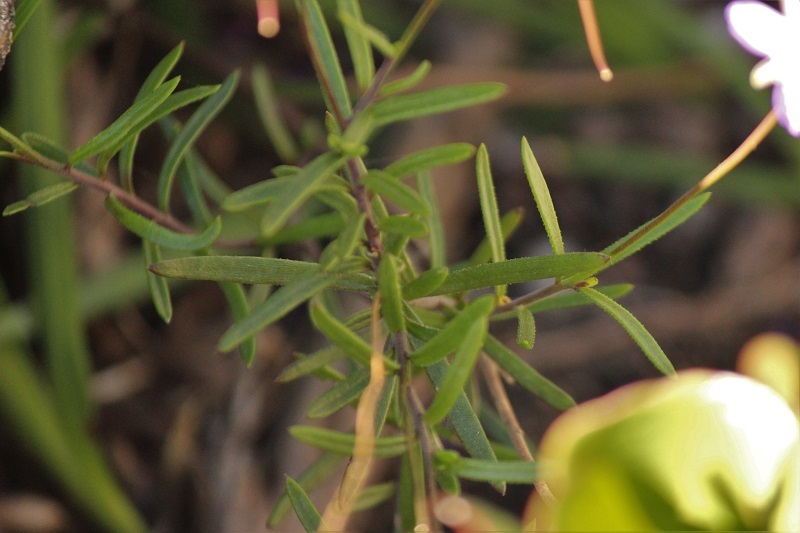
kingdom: Plantae
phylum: Tracheophyta
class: Magnoliopsida
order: Brassicales
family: Brassicaceae
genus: Heliophila
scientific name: Heliophila subulata
